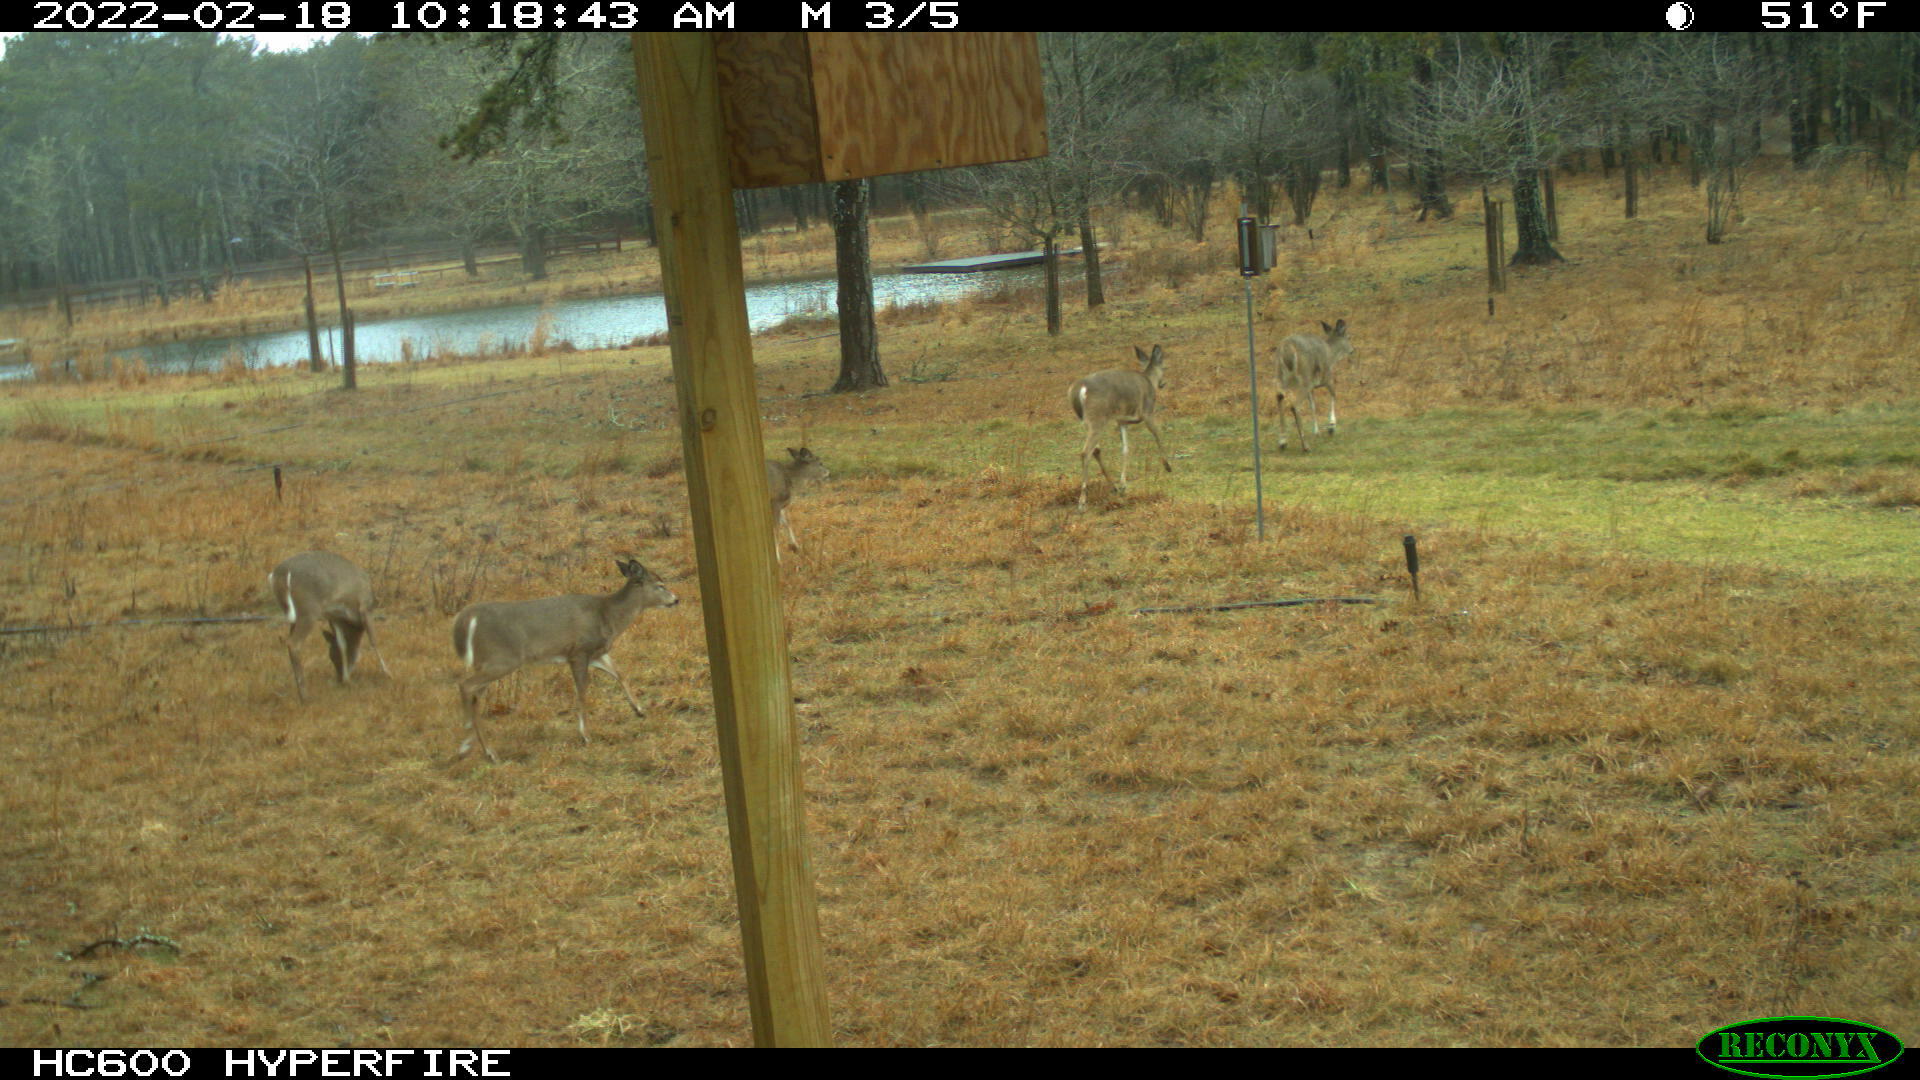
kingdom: Animalia
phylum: Chordata
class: Mammalia
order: Artiodactyla
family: Cervidae
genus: Odocoileus
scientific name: Odocoileus virginianus
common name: White-tailed deer
